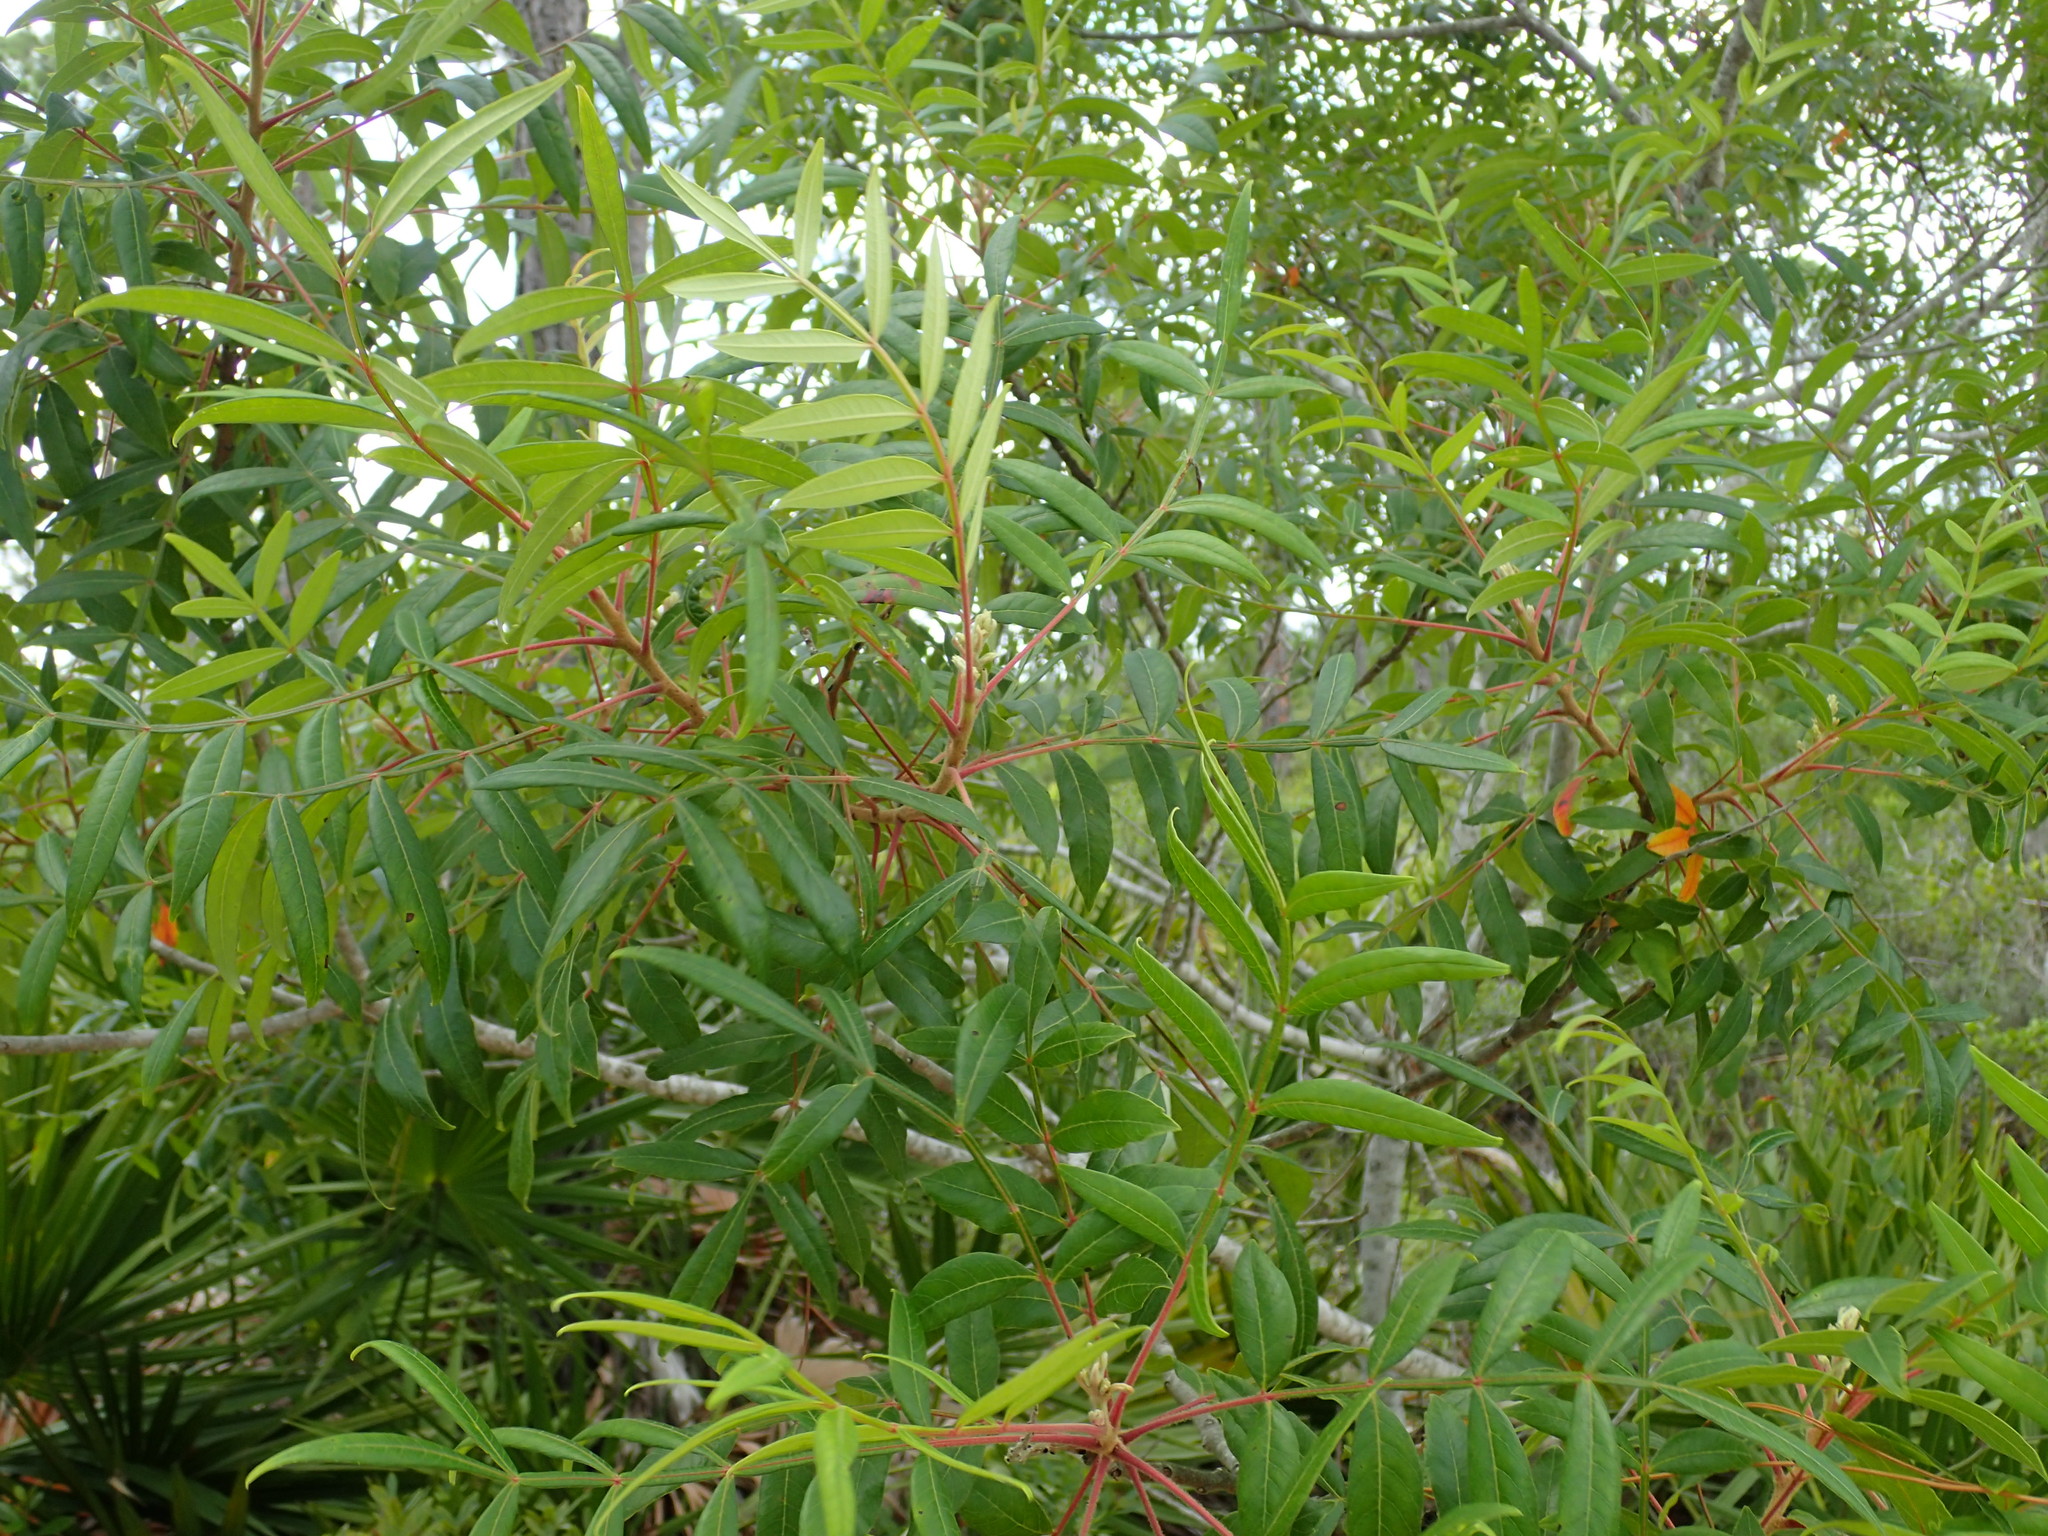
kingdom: Plantae
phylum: Tracheophyta
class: Magnoliopsida
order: Sapindales
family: Anacardiaceae
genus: Rhus
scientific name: Rhus copallina
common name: Shining sumac
